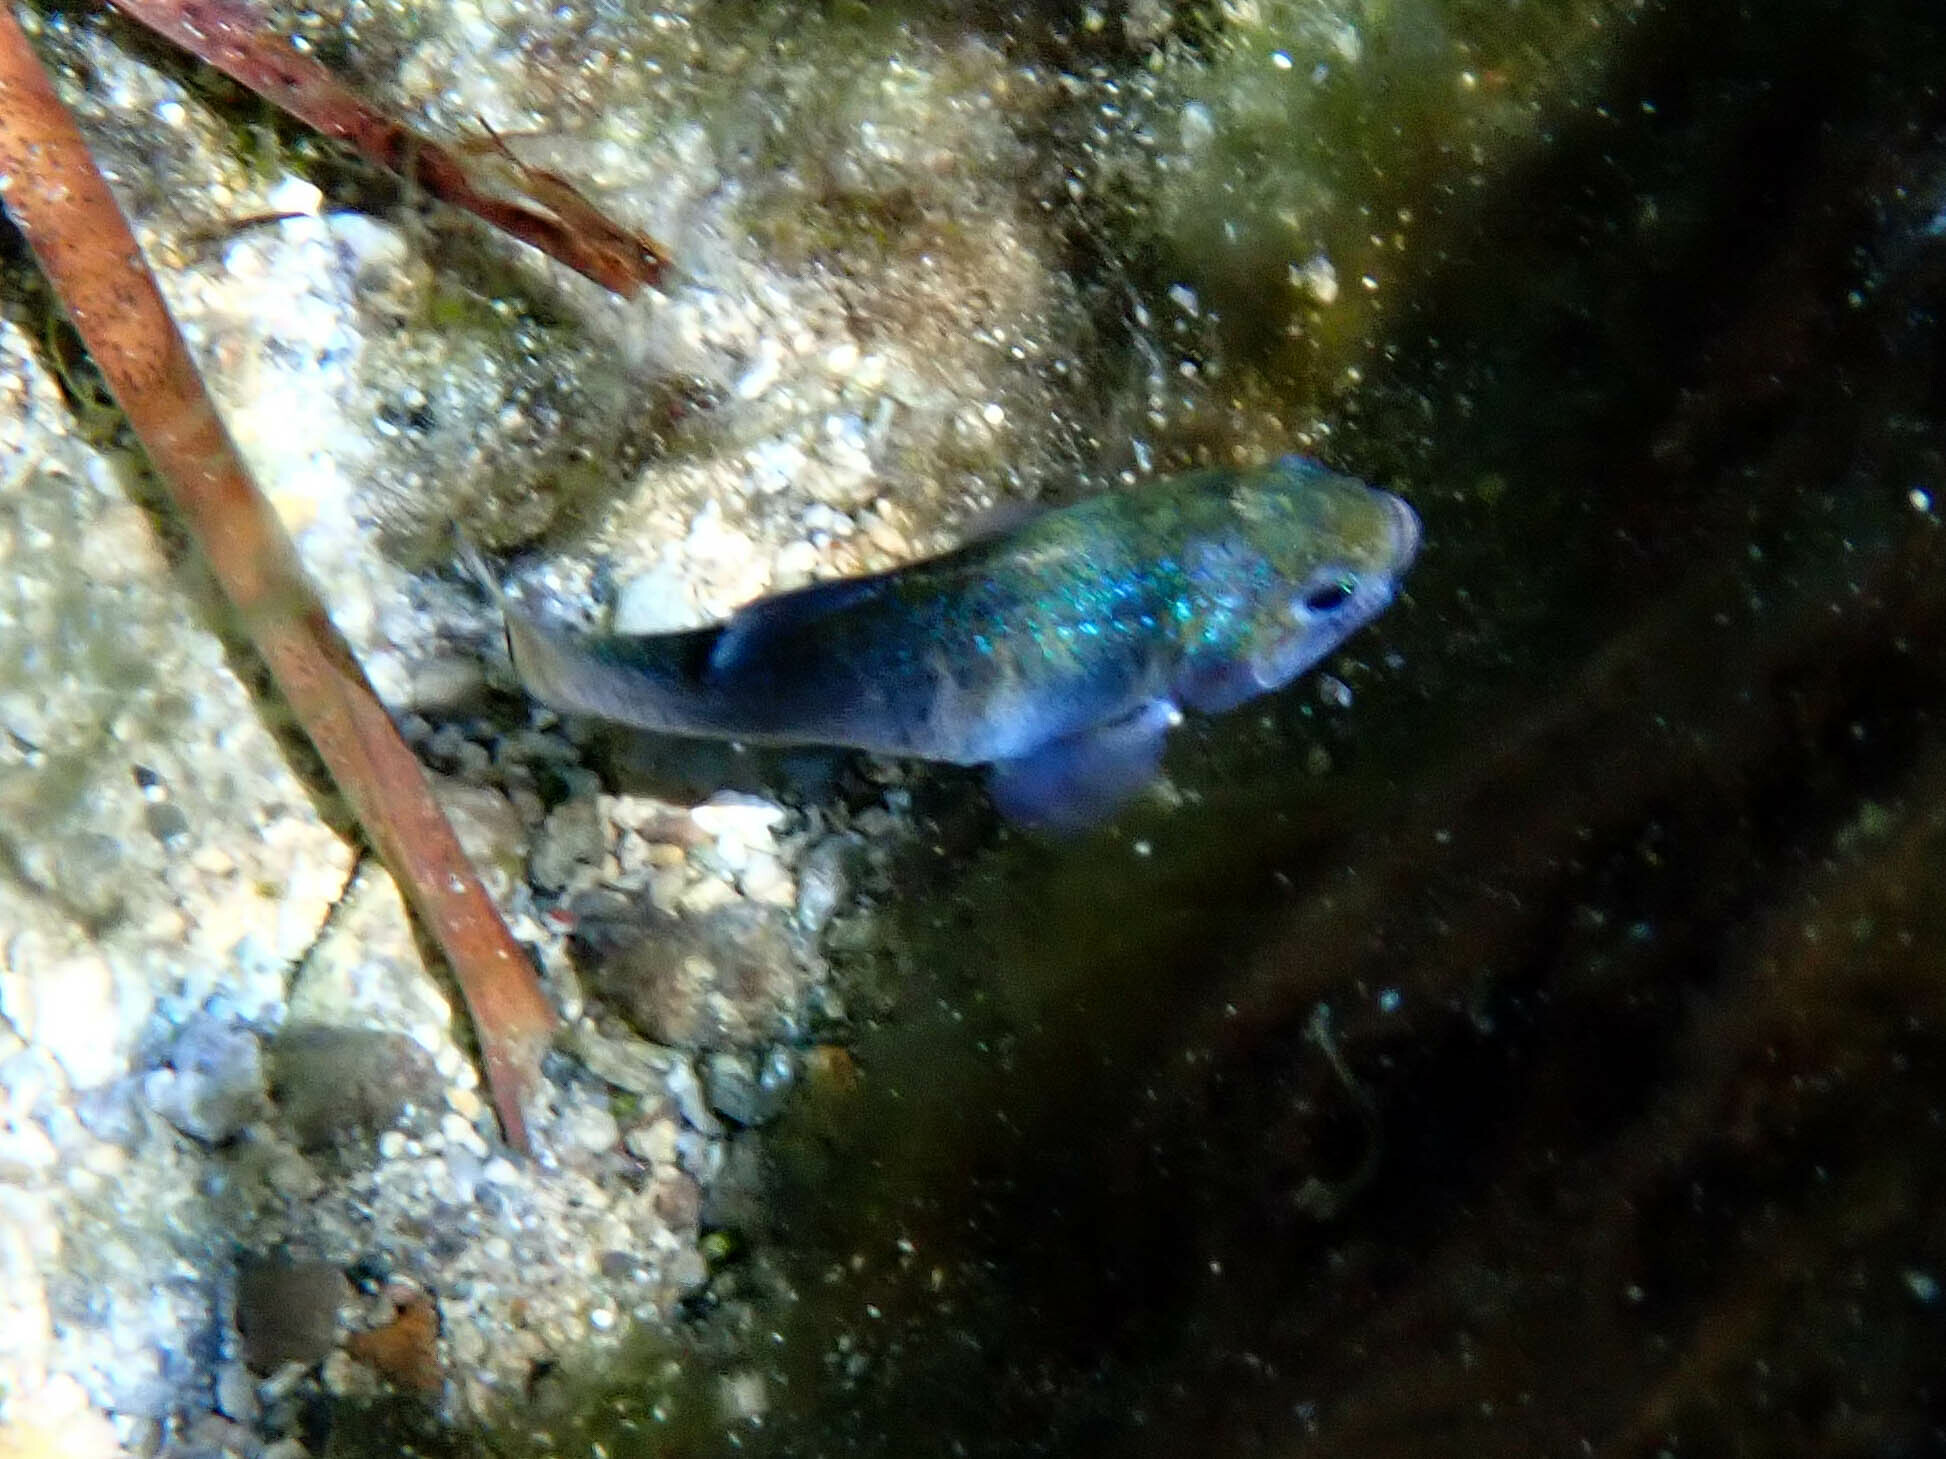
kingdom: Animalia
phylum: Chordata
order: Cyprinodontiformes
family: Cyprinodontidae
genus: Cyprinodon
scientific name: Cyprinodon nevadensis
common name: Amargosa pupfish
